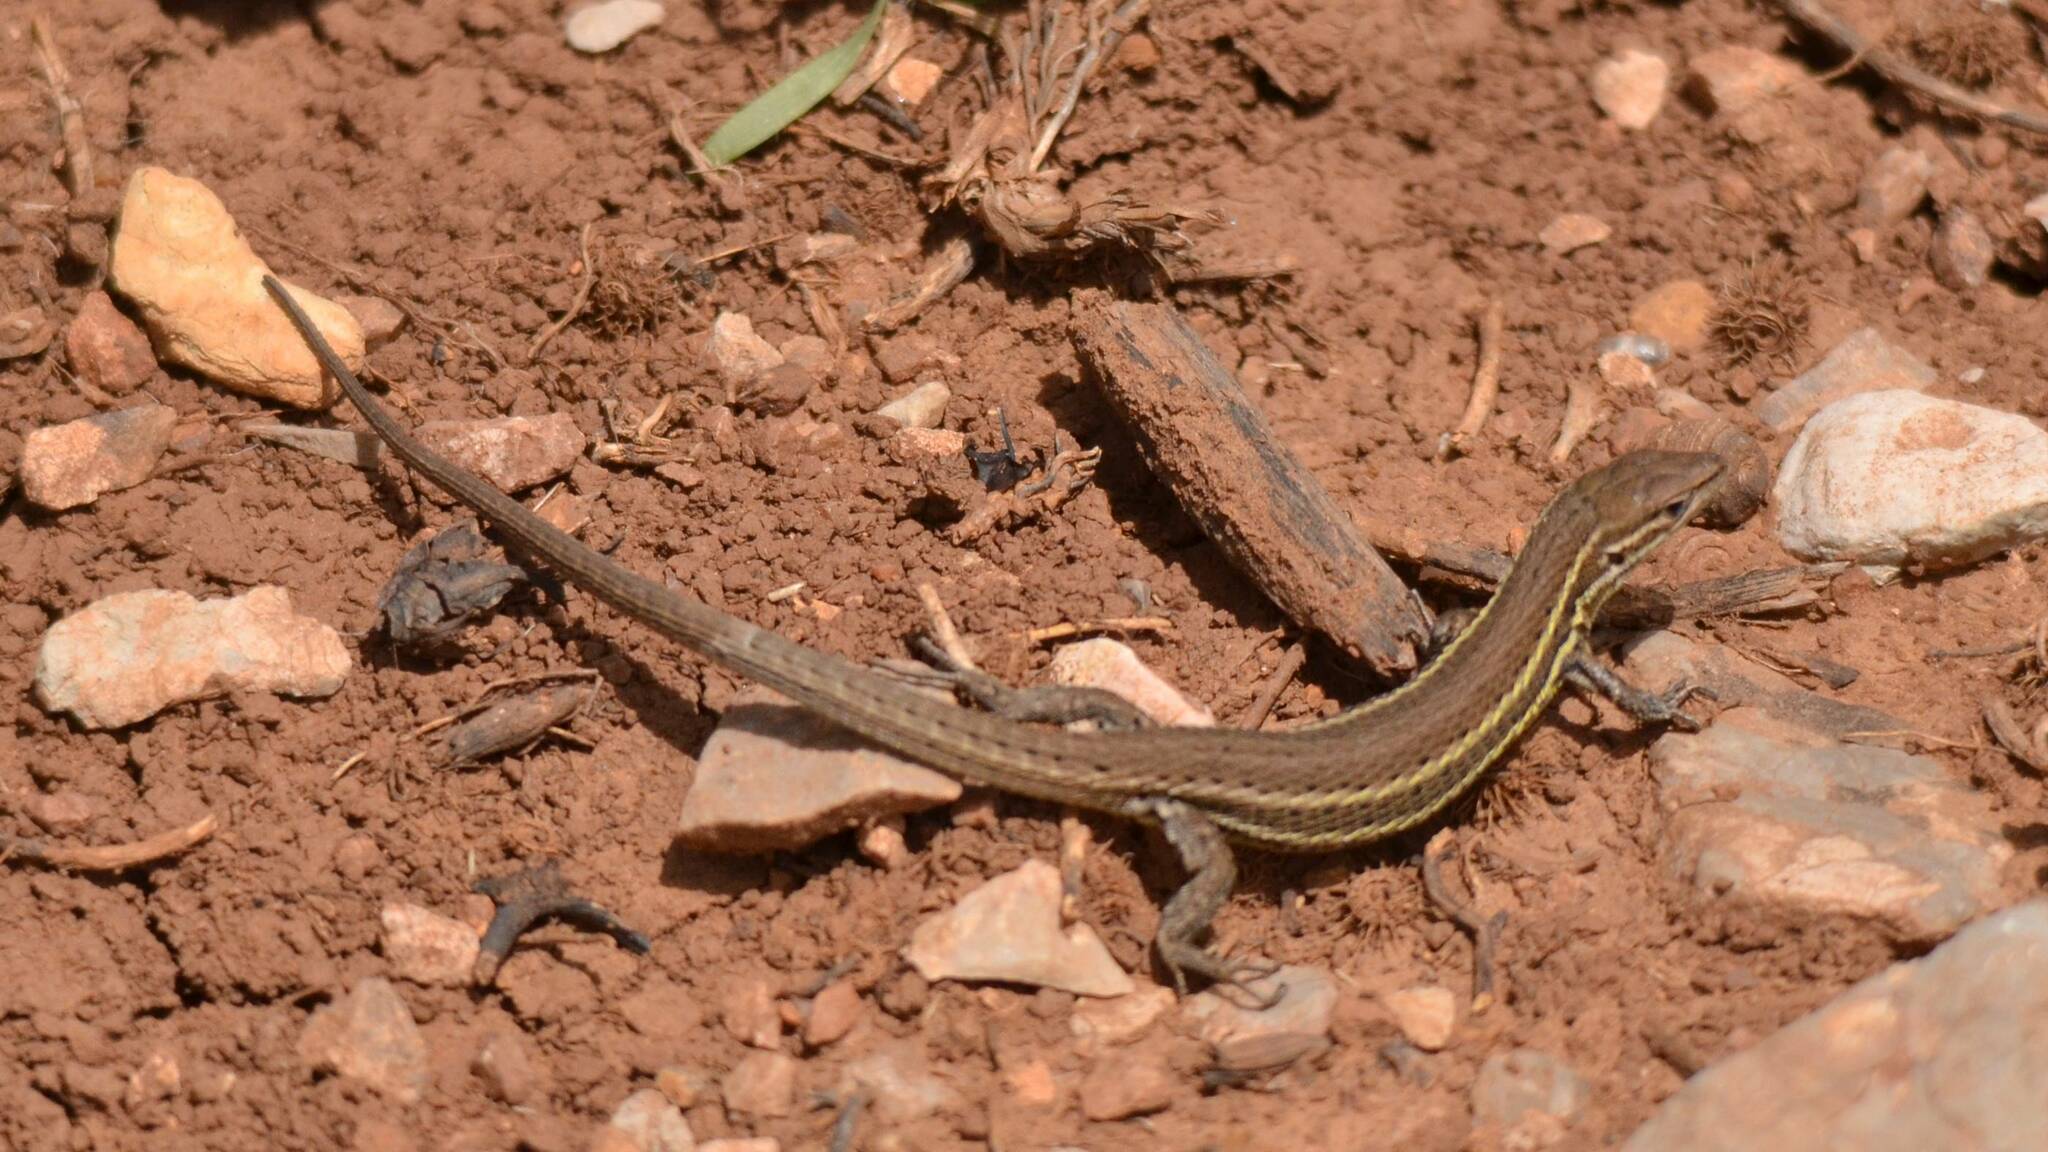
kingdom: Animalia
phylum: Chordata
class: Squamata
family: Lacertidae
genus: Psammodromus
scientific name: Psammodromus algirus
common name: Algerian psammodromus
